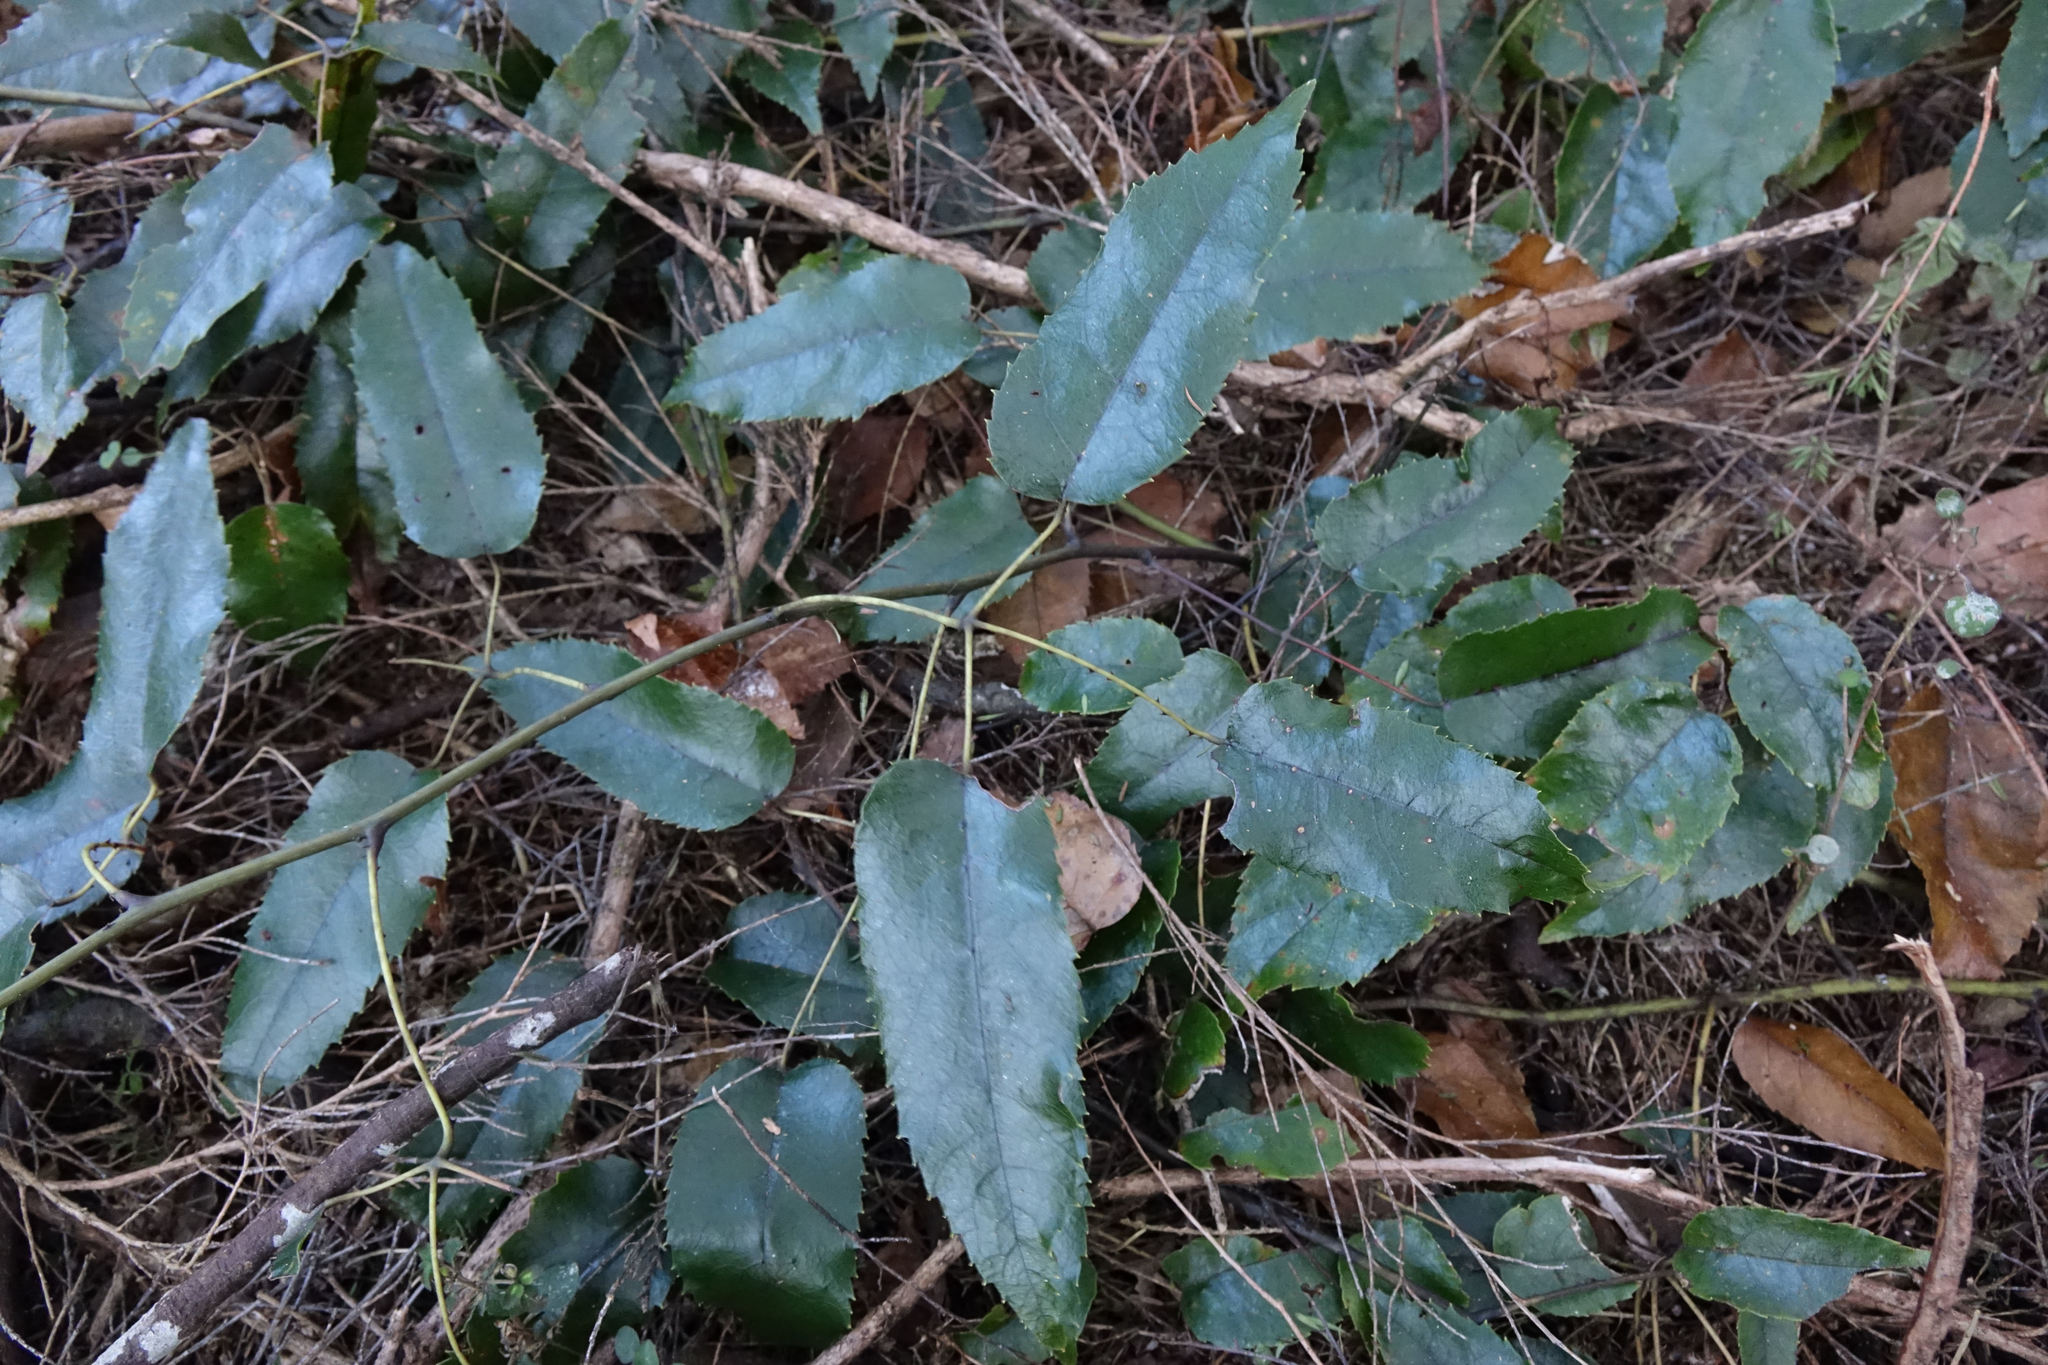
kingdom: Plantae
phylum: Tracheophyta
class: Magnoliopsida
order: Rosales
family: Rosaceae
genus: Rubus
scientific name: Rubus cissoides
